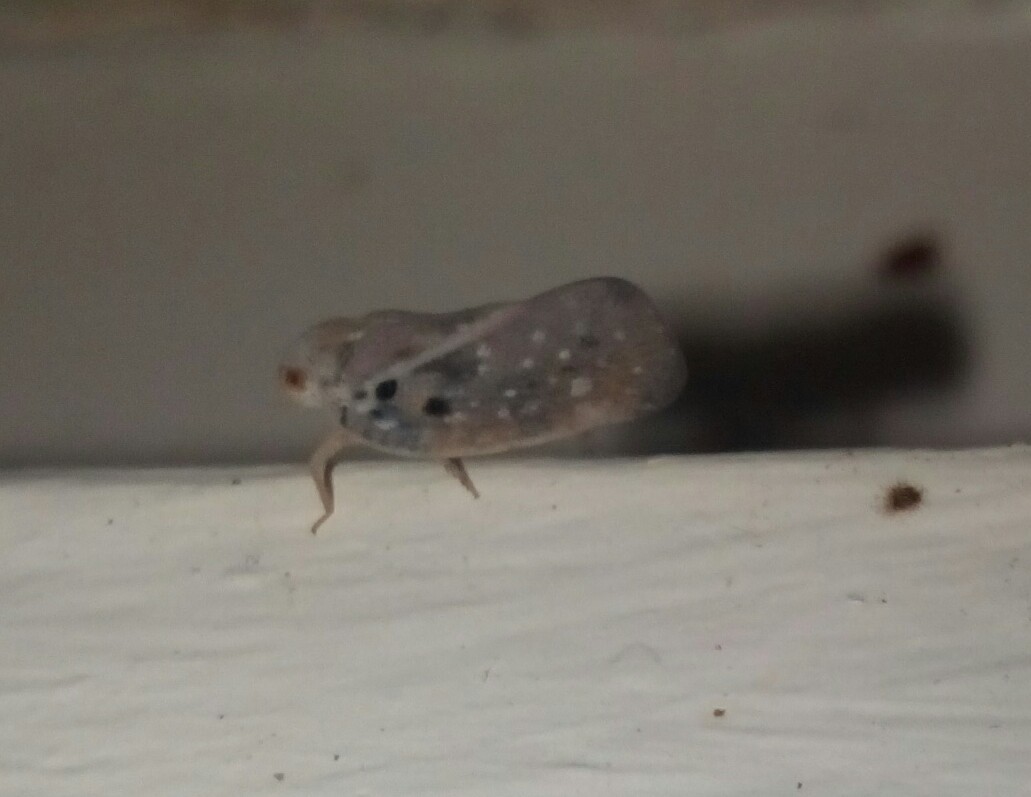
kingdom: Animalia
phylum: Arthropoda
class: Insecta
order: Hemiptera
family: Flatidae
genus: Metcalfa
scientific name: Metcalfa pruinosa
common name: Citrus flatid planthopper
